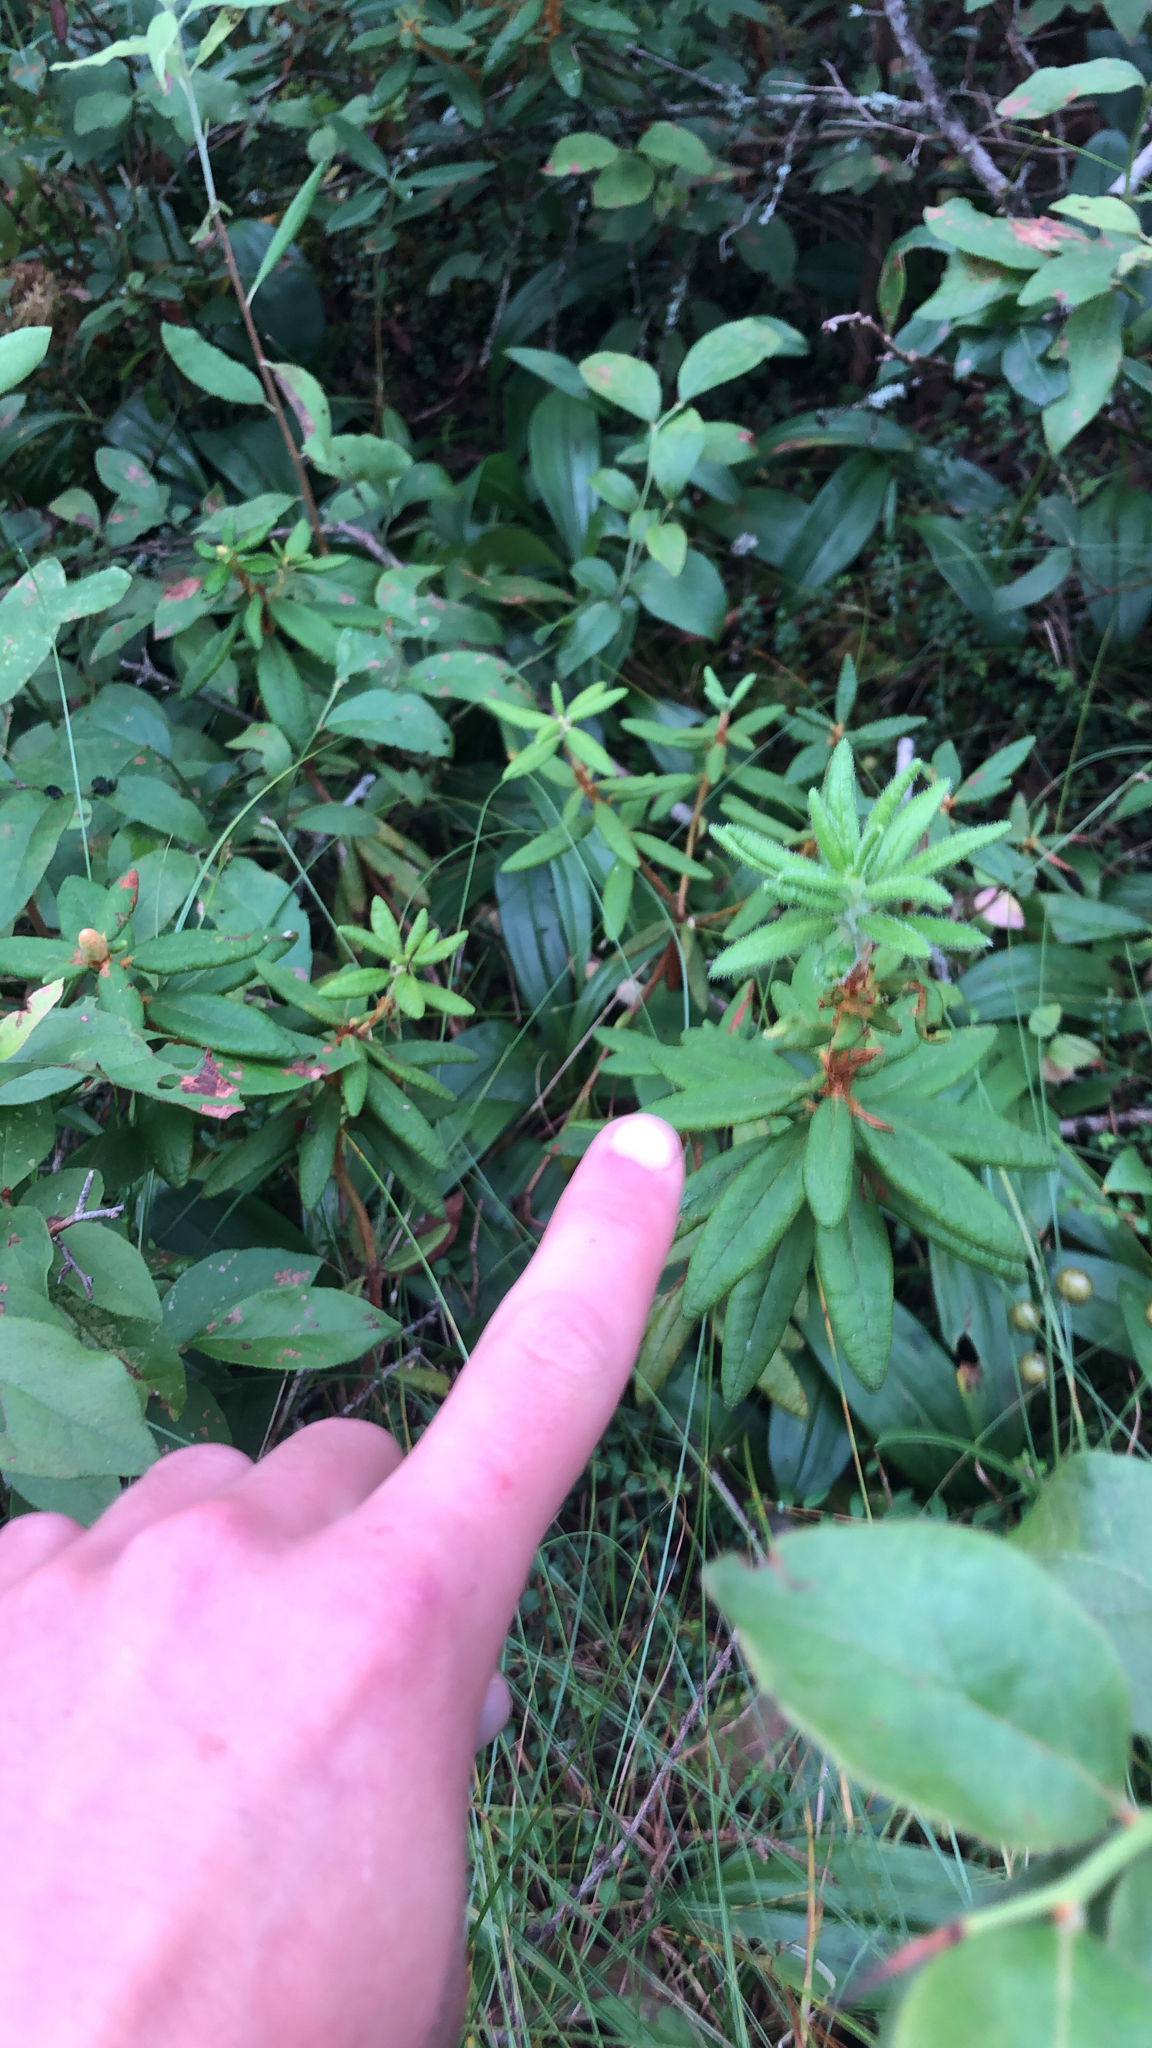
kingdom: Plantae
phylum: Tracheophyta
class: Magnoliopsida
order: Ericales
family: Ericaceae
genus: Rhododendron
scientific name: Rhododendron groenlandicum
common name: Bog labrador tea
